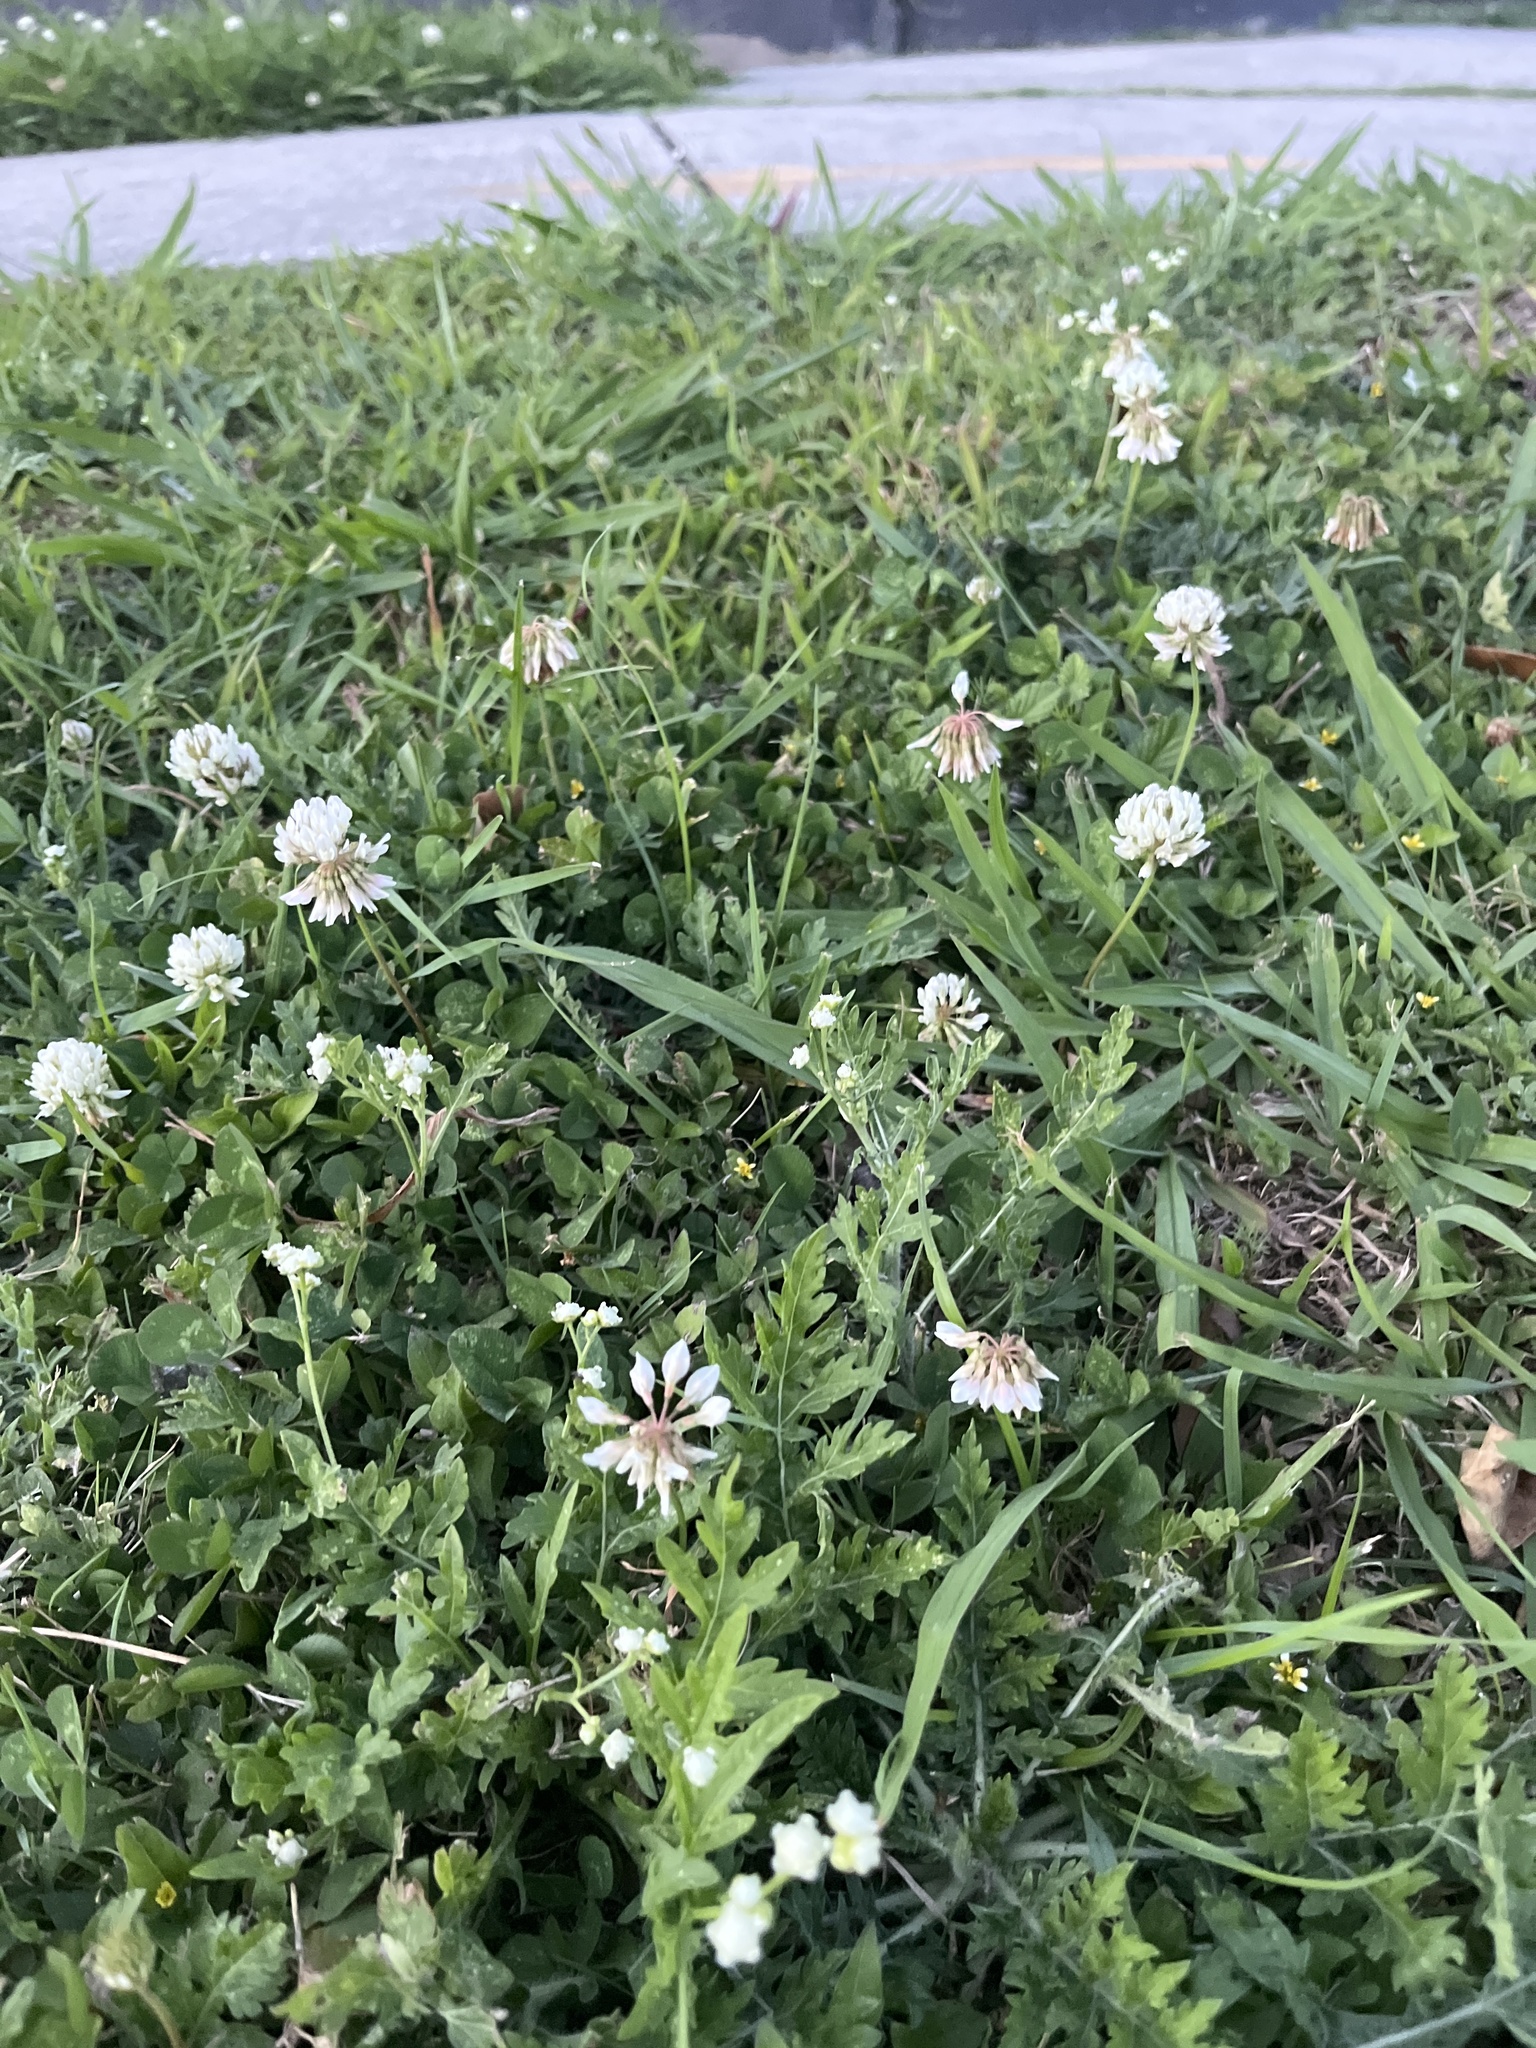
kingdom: Plantae
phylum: Tracheophyta
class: Magnoliopsida
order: Fabales
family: Fabaceae
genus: Trifolium
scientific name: Trifolium repens
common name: White clover
